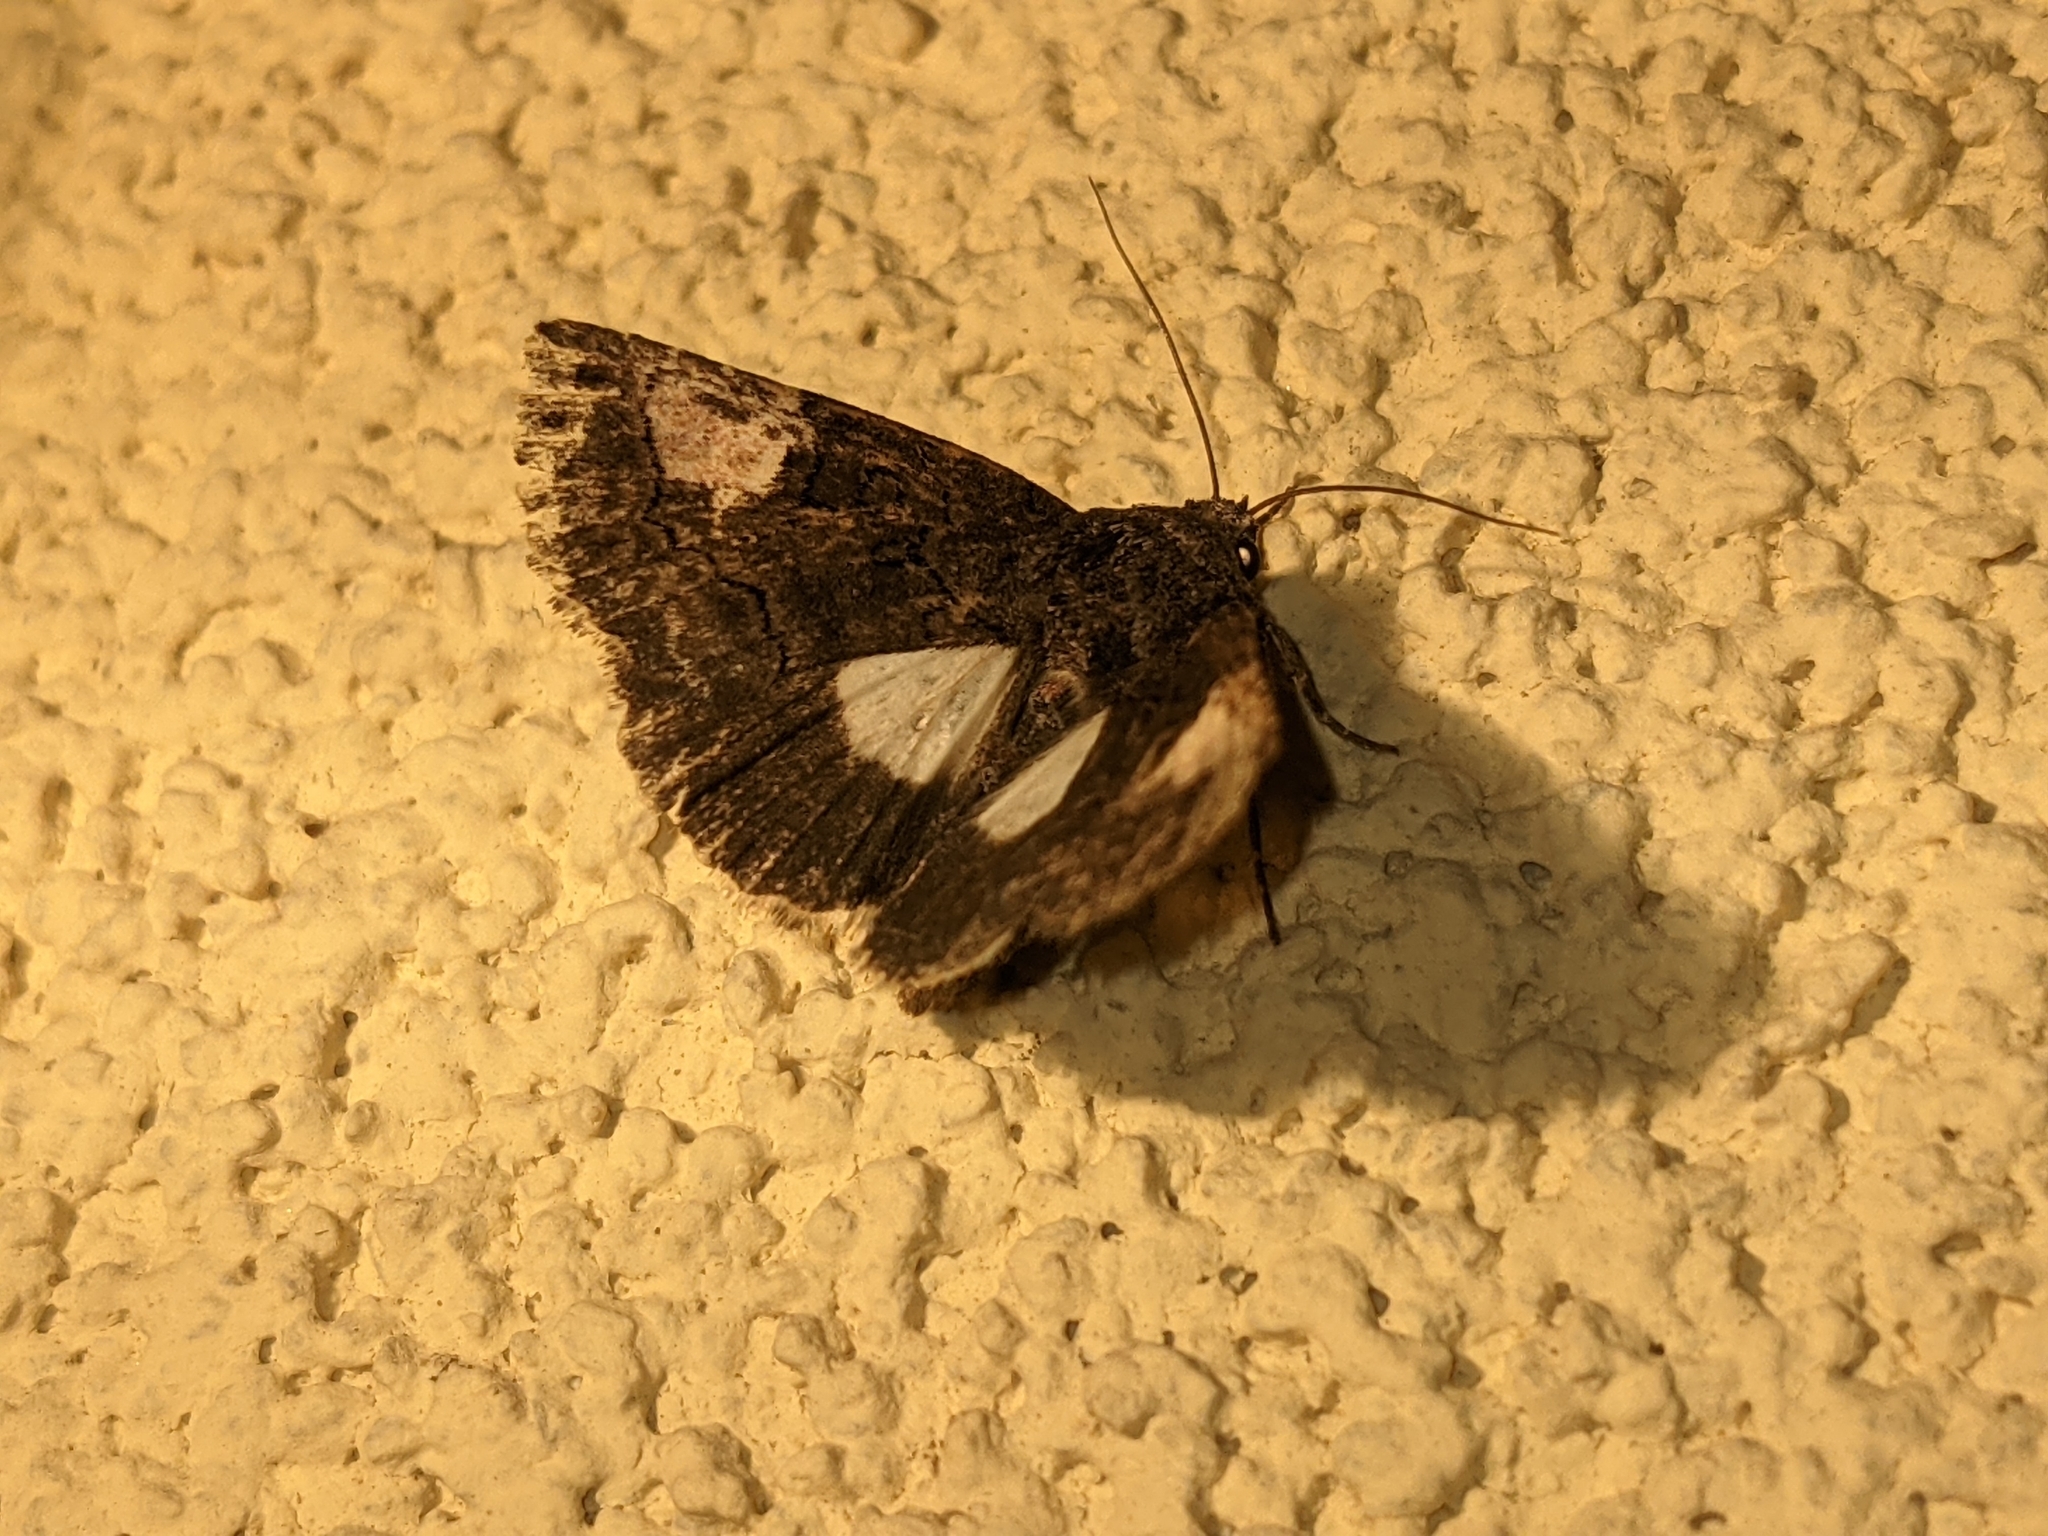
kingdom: Animalia
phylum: Arthropoda
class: Insecta
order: Lepidoptera
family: Noctuidae
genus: Aedia
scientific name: Aedia funesta
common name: The druid
